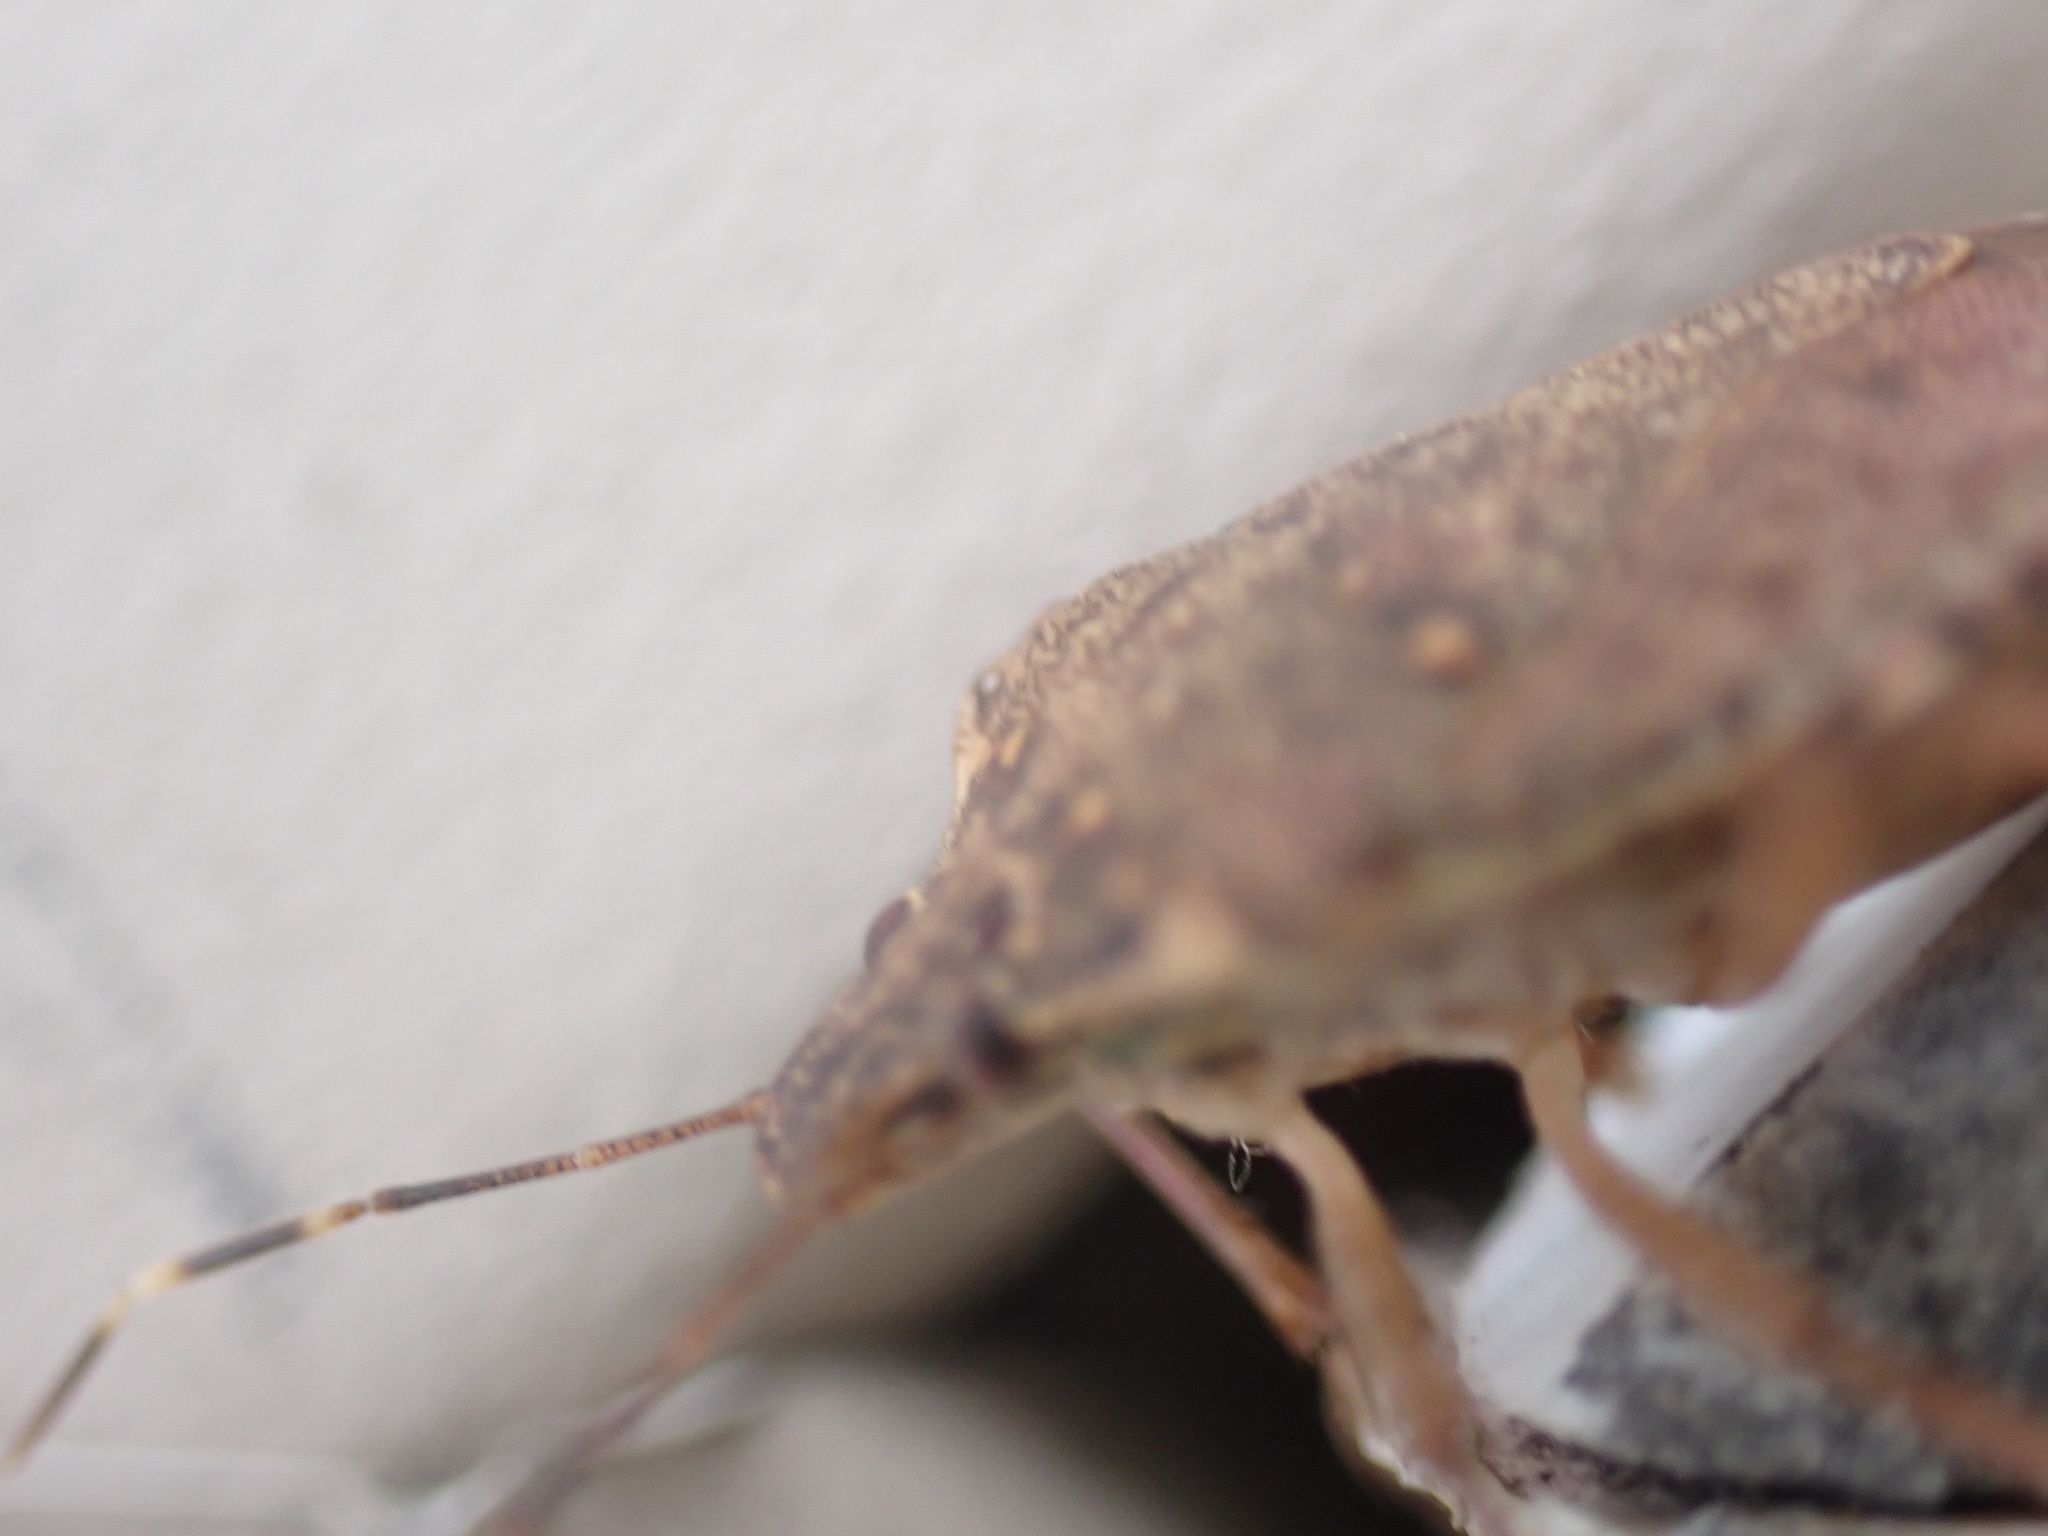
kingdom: Animalia
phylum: Arthropoda
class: Insecta
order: Hemiptera
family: Pentatomidae
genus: Halyomorpha
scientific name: Halyomorpha halys
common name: Brown marmorated stink bug
